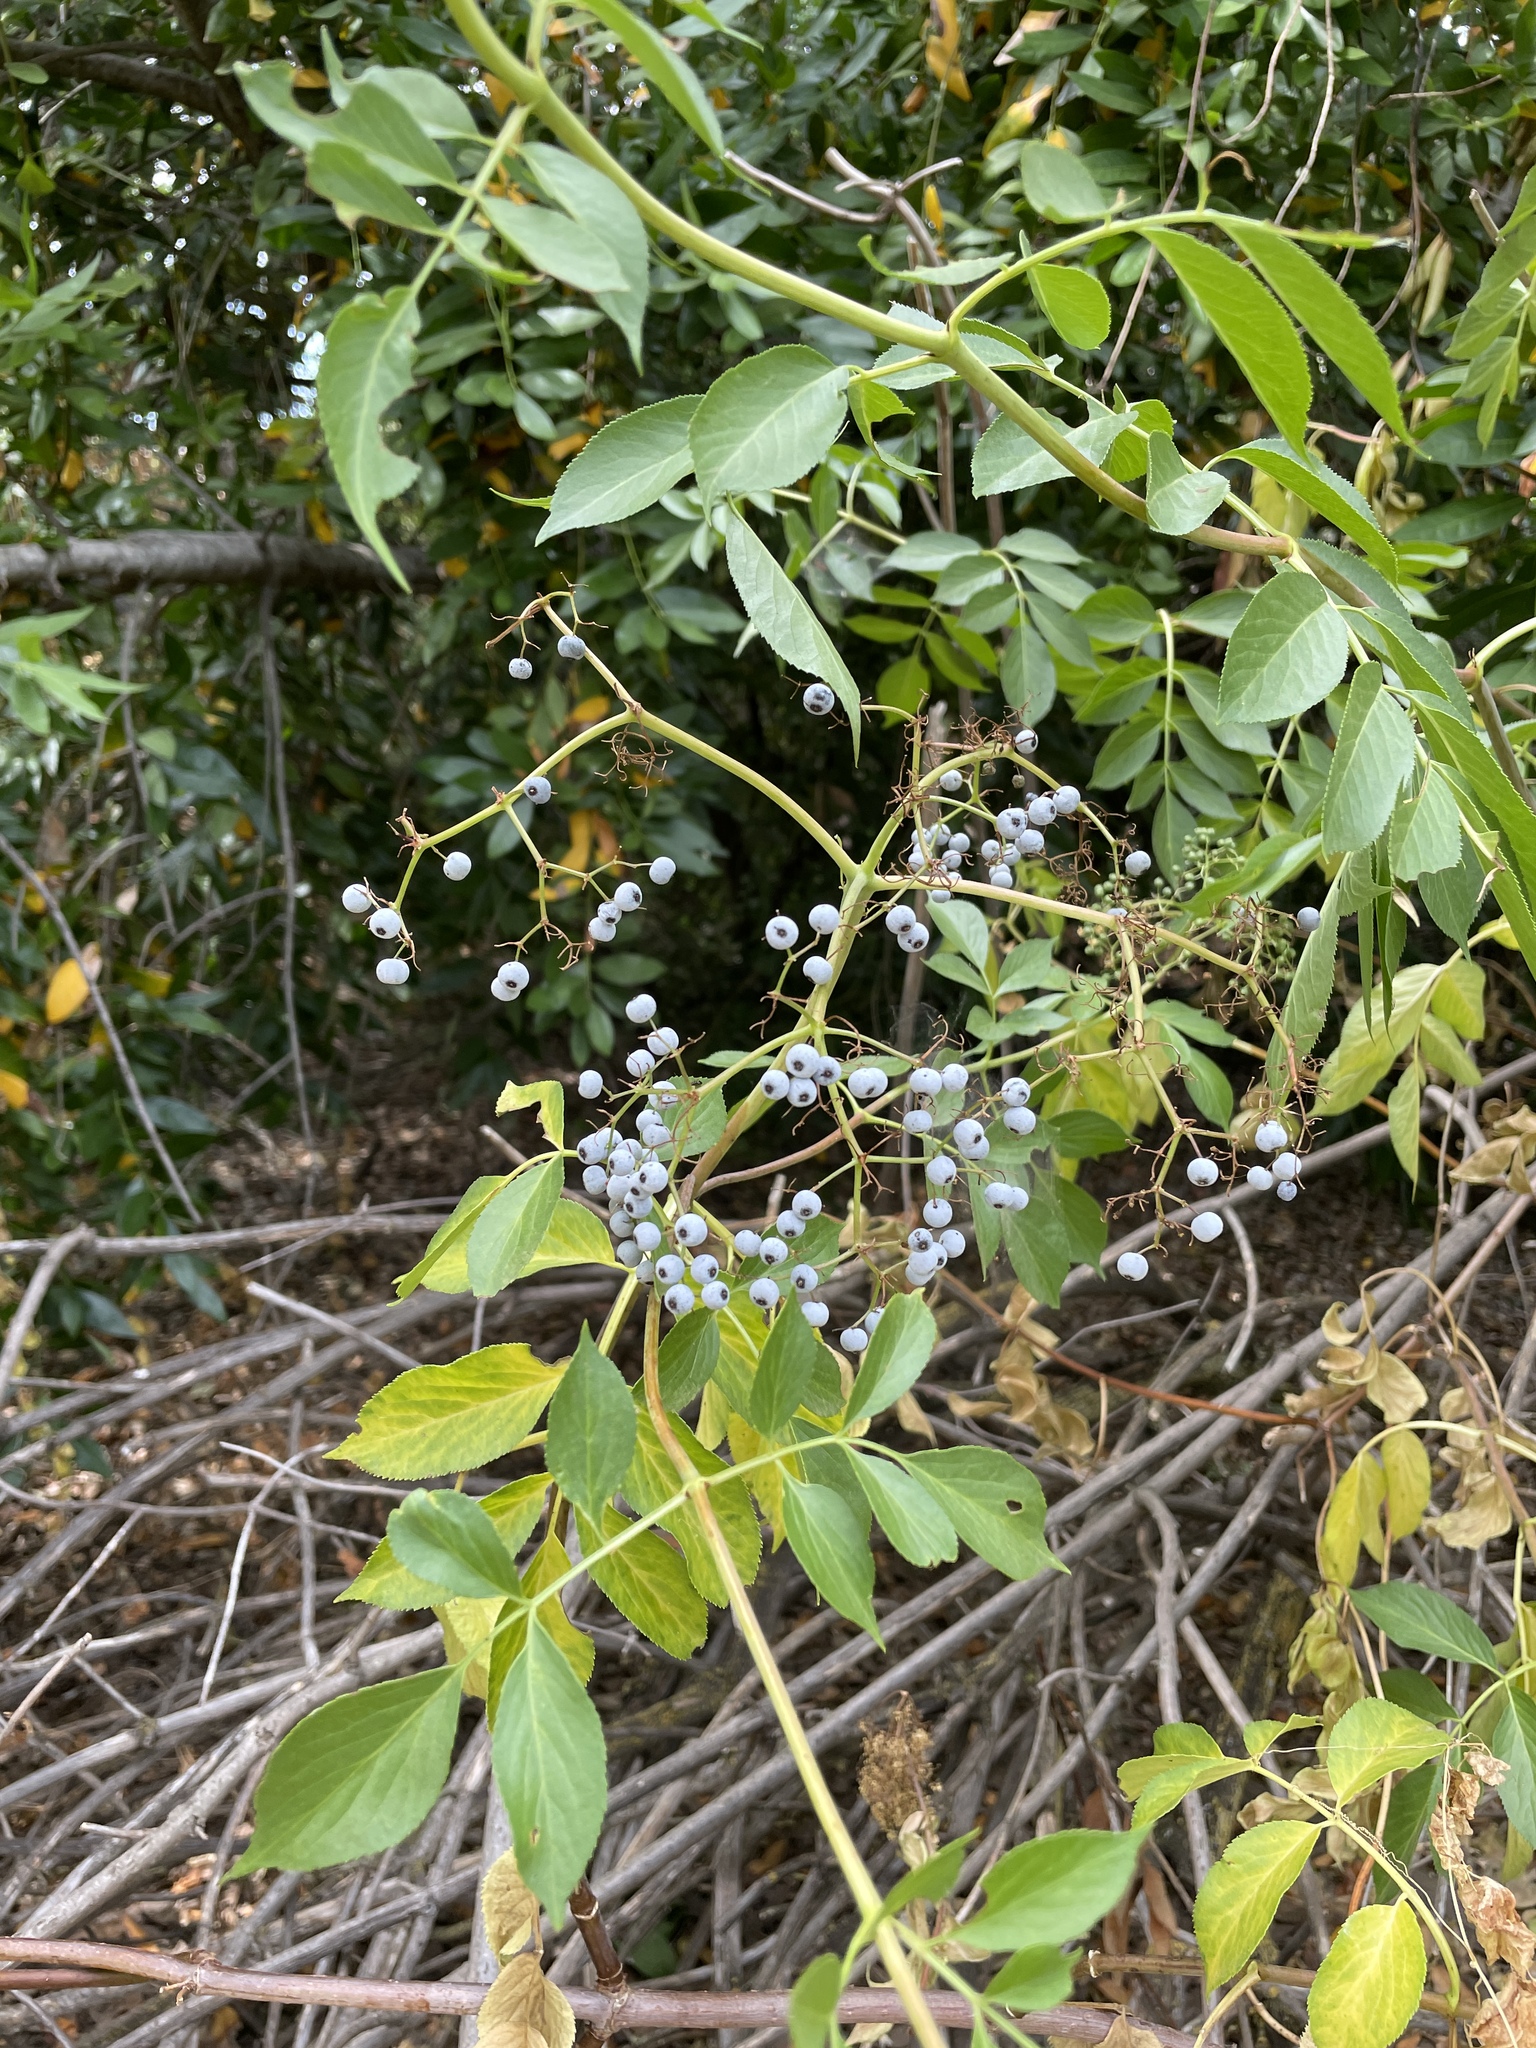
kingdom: Plantae
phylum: Tracheophyta
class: Magnoliopsida
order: Dipsacales
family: Viburnaceae
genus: Sambucus
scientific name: Sambucus cerulea
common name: Blue elder
